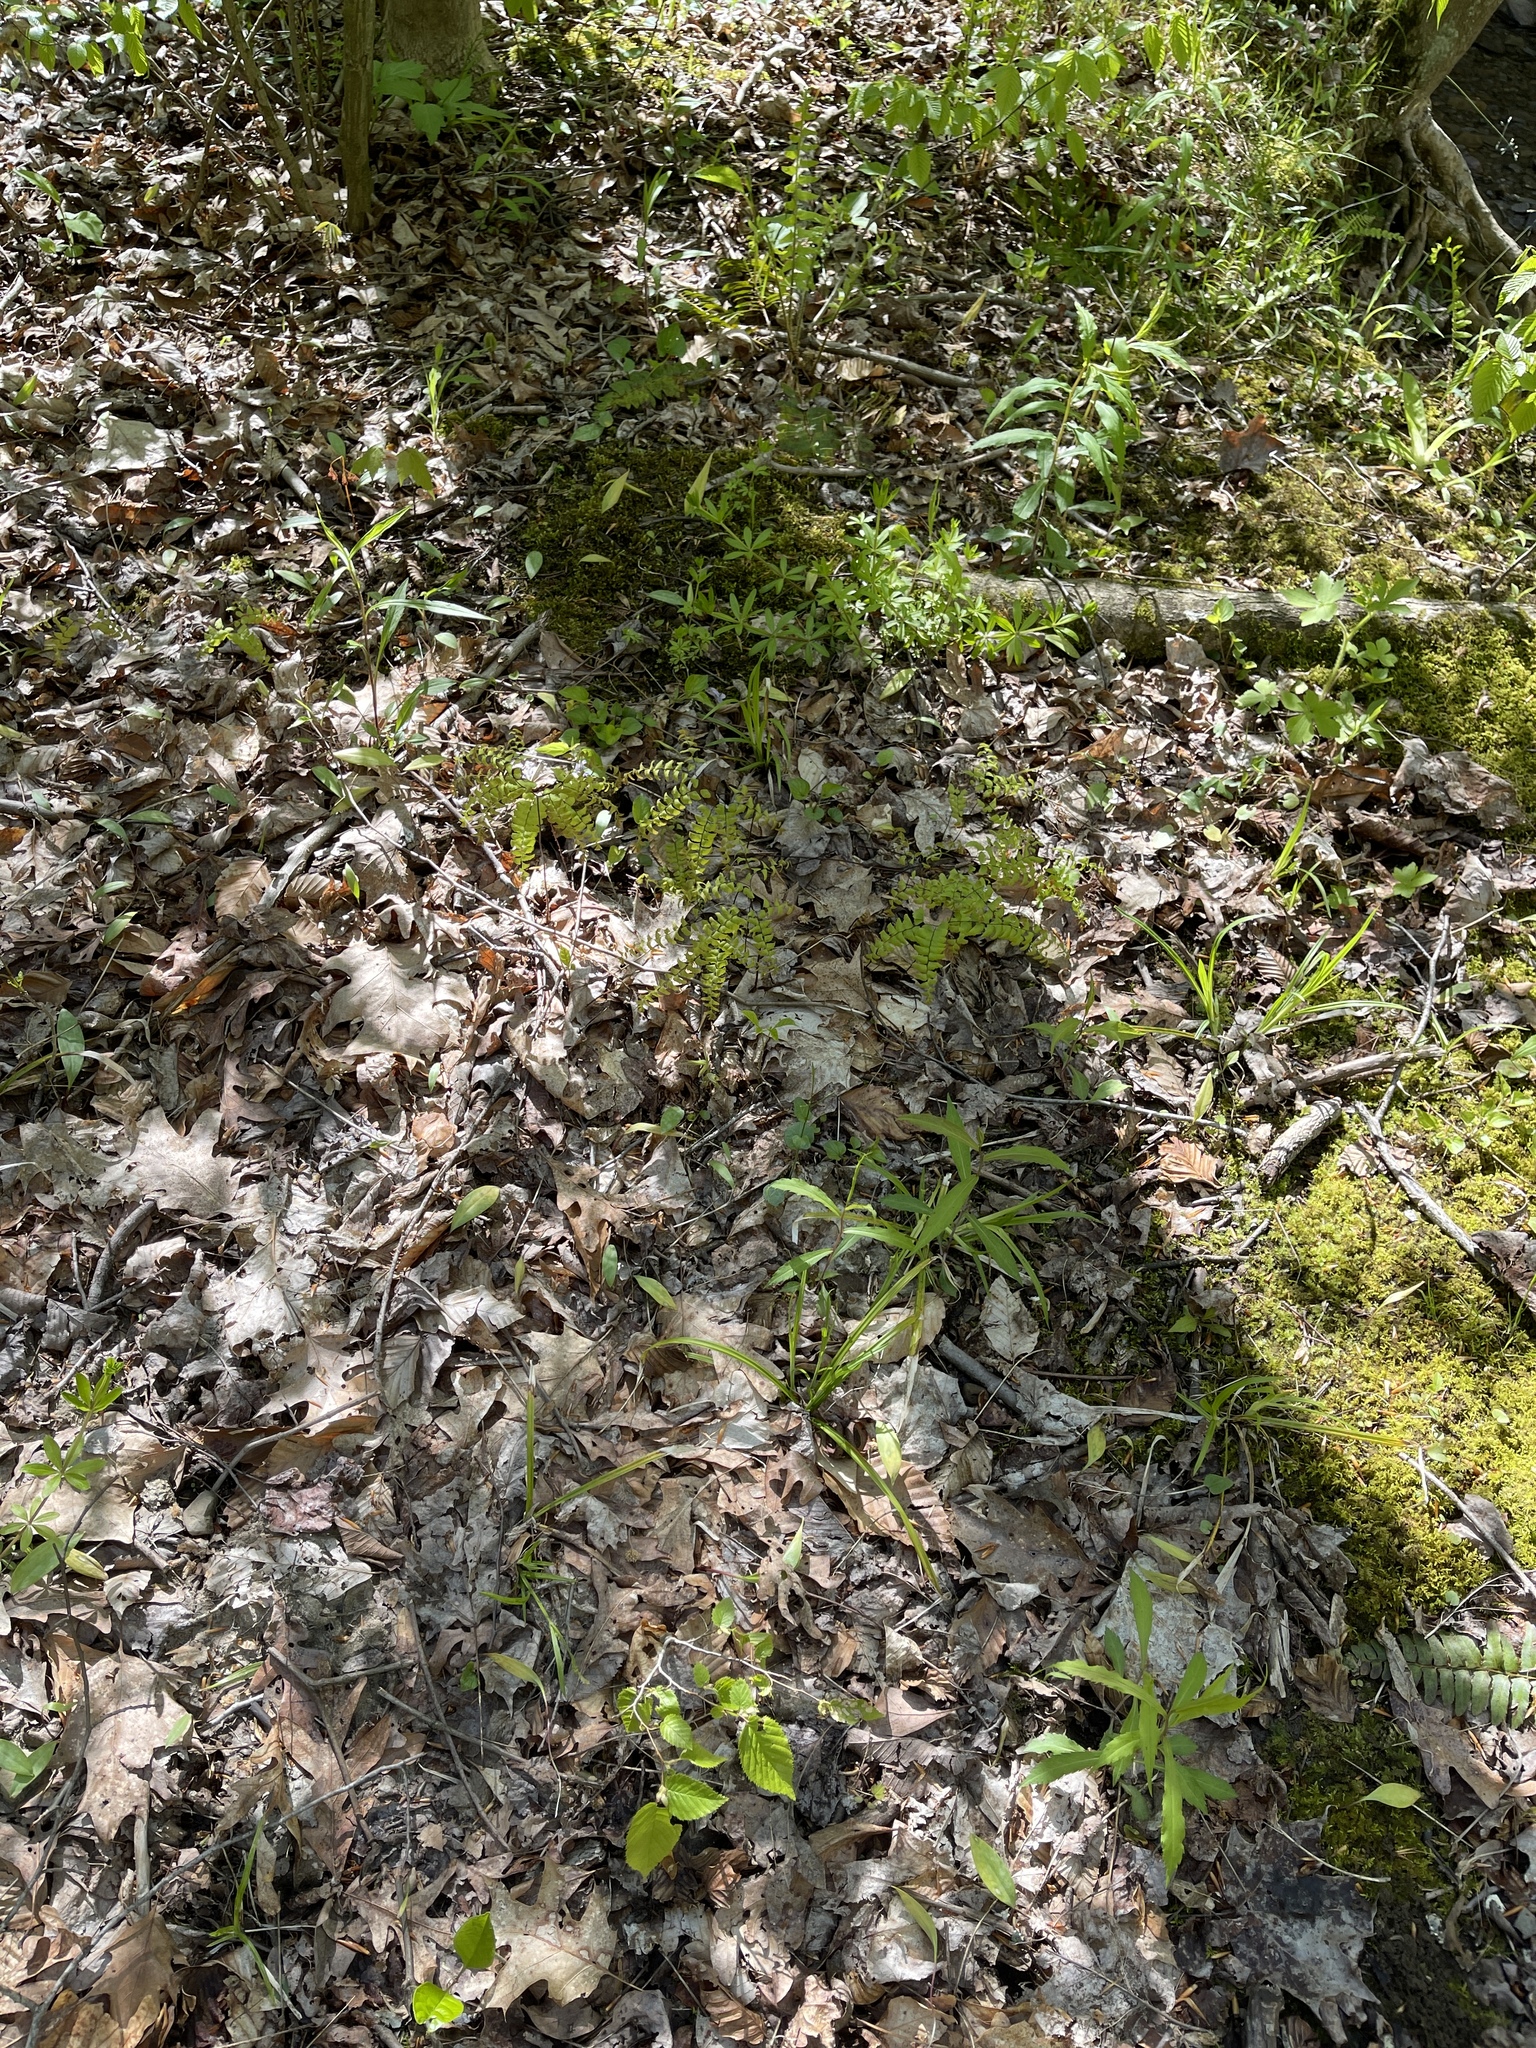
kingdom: Plantae
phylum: Tracheophyta
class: Polypodiopsida
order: Polypodiales
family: Pteridaceae
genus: Adiantum
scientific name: Adiantum pedatum
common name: Five-finger fern
